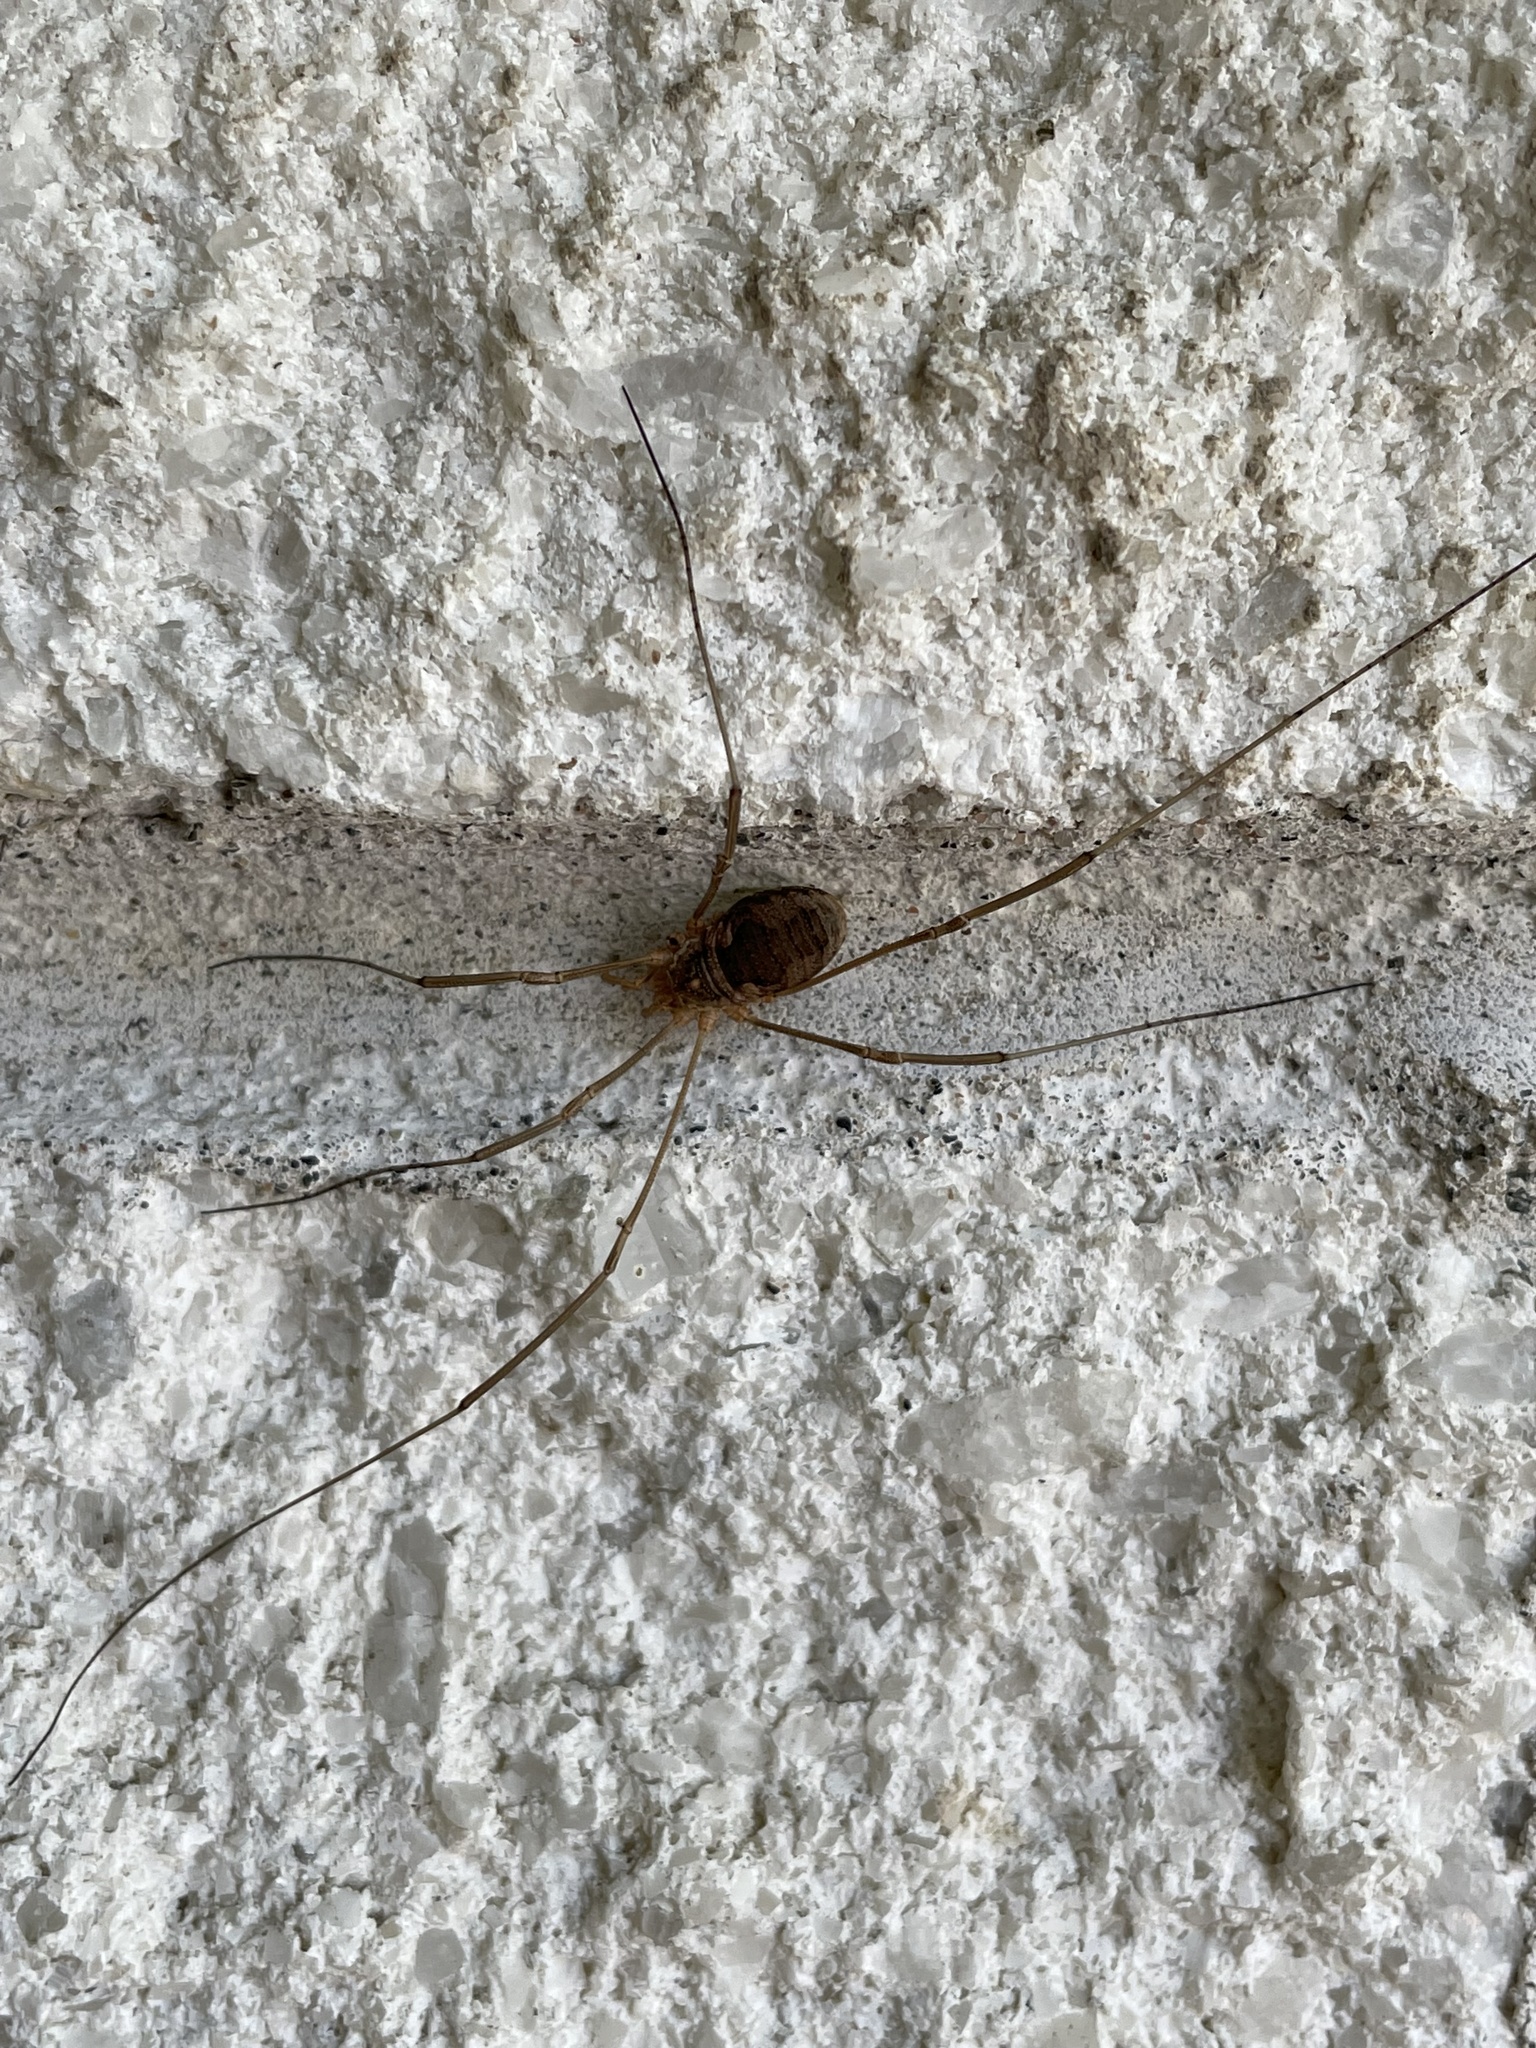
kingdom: Animalia
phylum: Arthropoda
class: Arachnida
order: Opiliones
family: Phalangiidae
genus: Phalangium
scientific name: Phalangium opilio
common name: Daddy longleg
